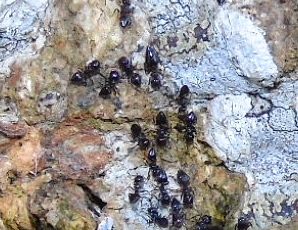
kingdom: Animalia
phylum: Arthropoda
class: Insecta
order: Hymenoptera
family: Formicidae
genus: Crematogaster
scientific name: Crematogaster
